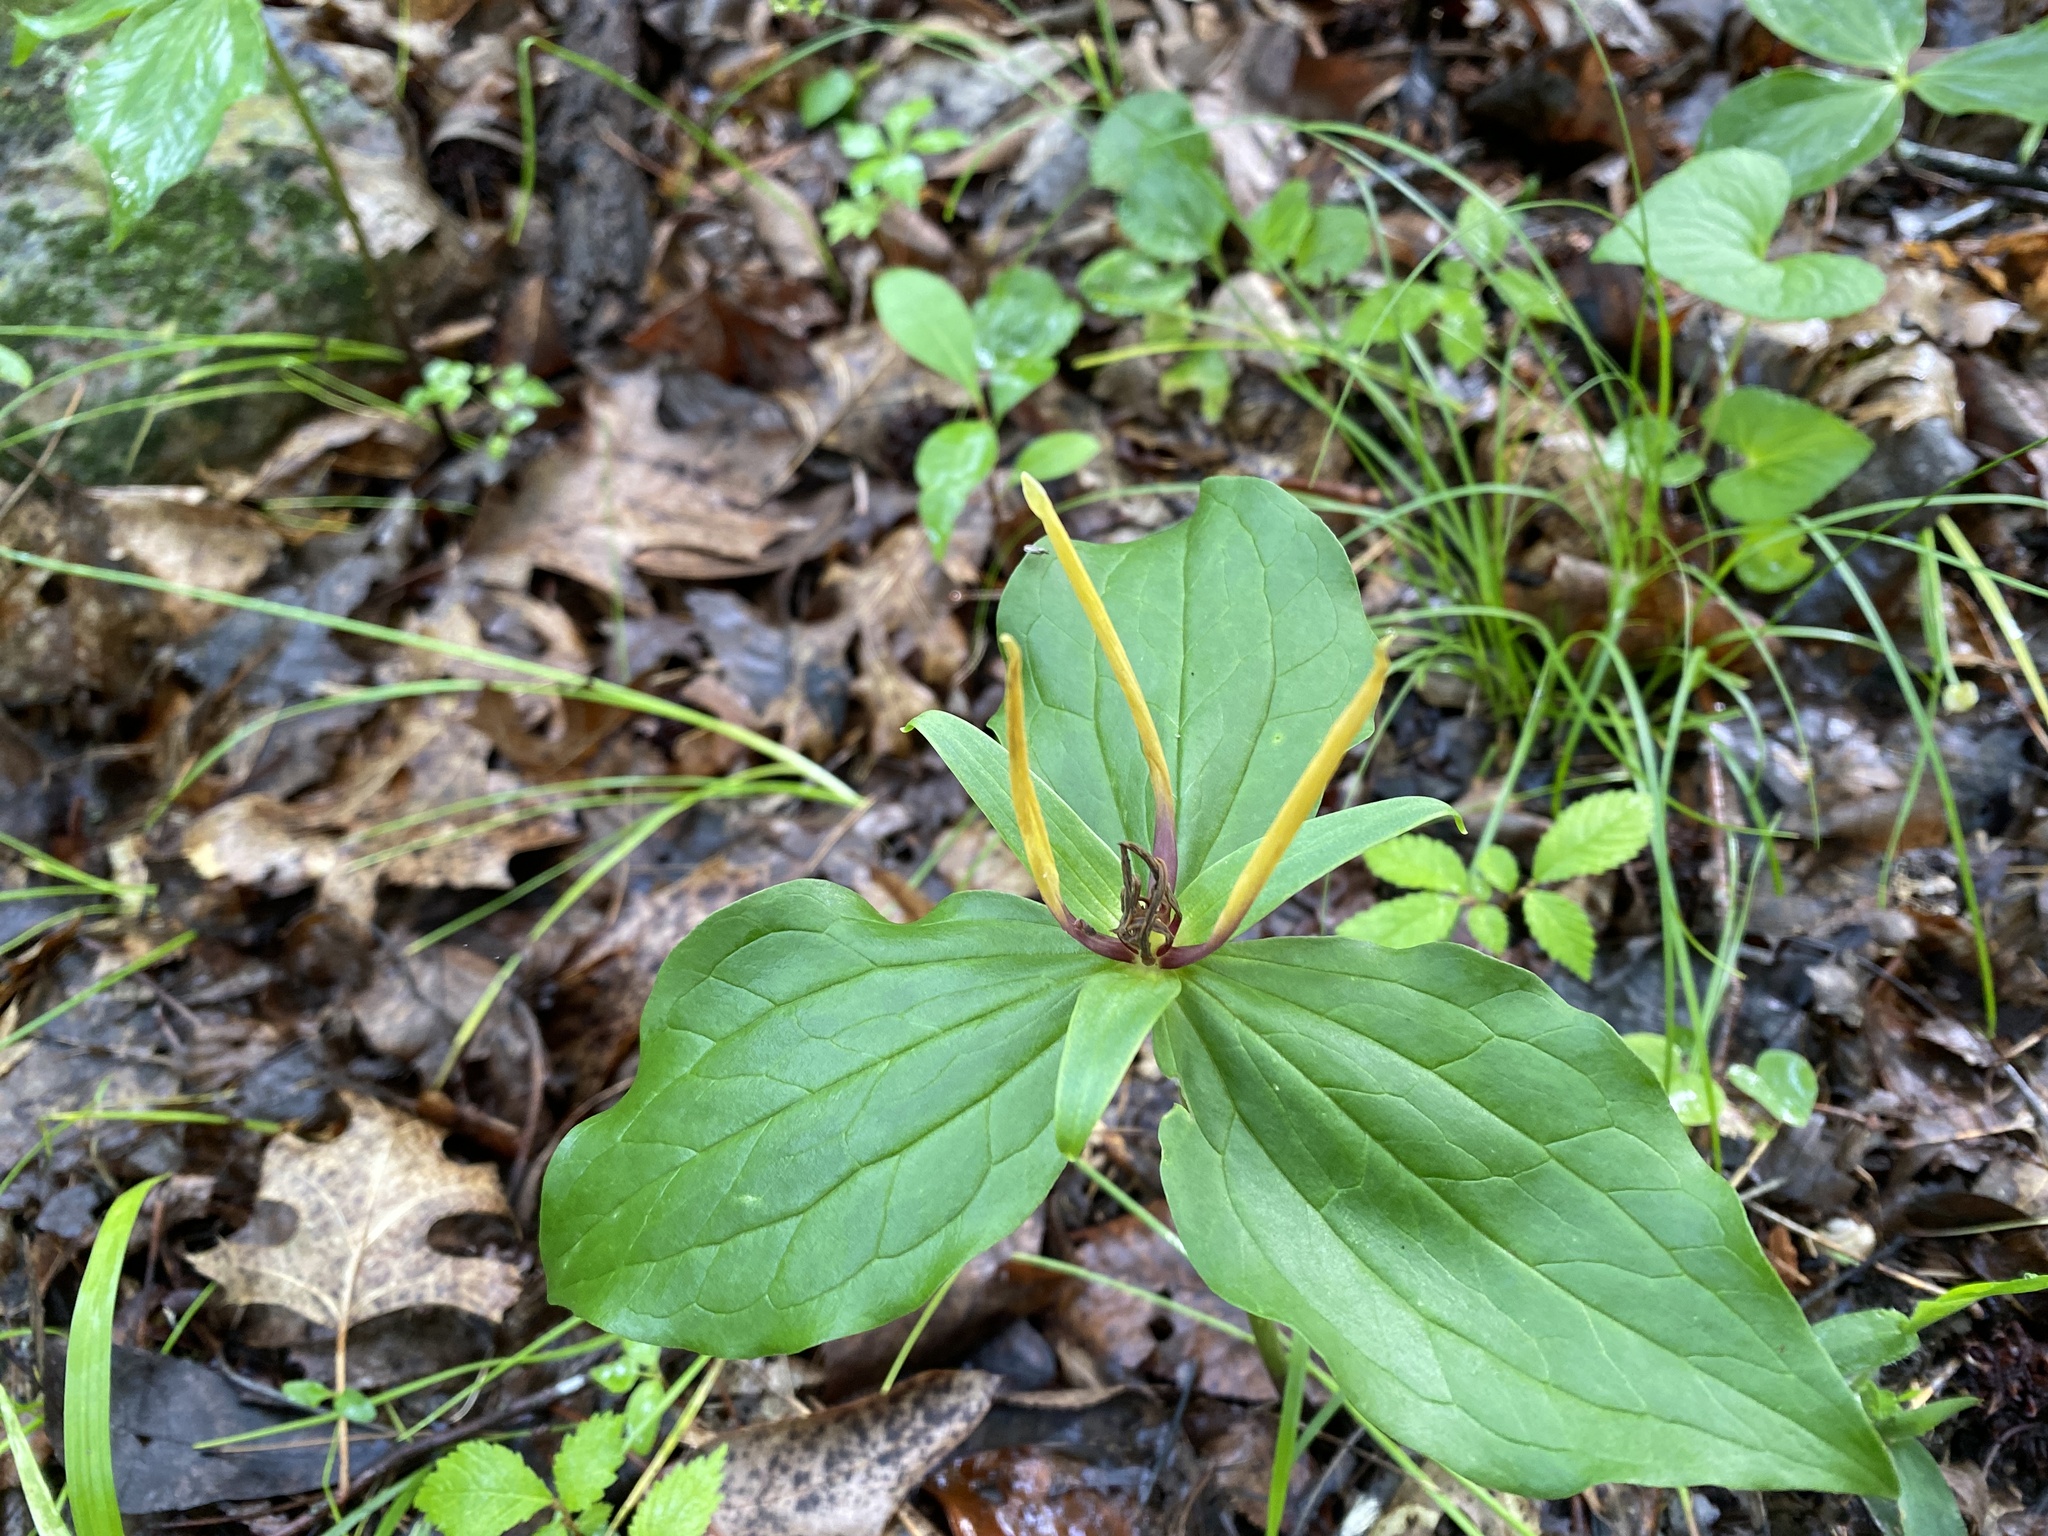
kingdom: Plantae
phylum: Tracheophyta
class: Liliopsida
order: Liliales
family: Melanthiaceae
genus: Trillium
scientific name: Trillium viridescens
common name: Ozark green trillium
